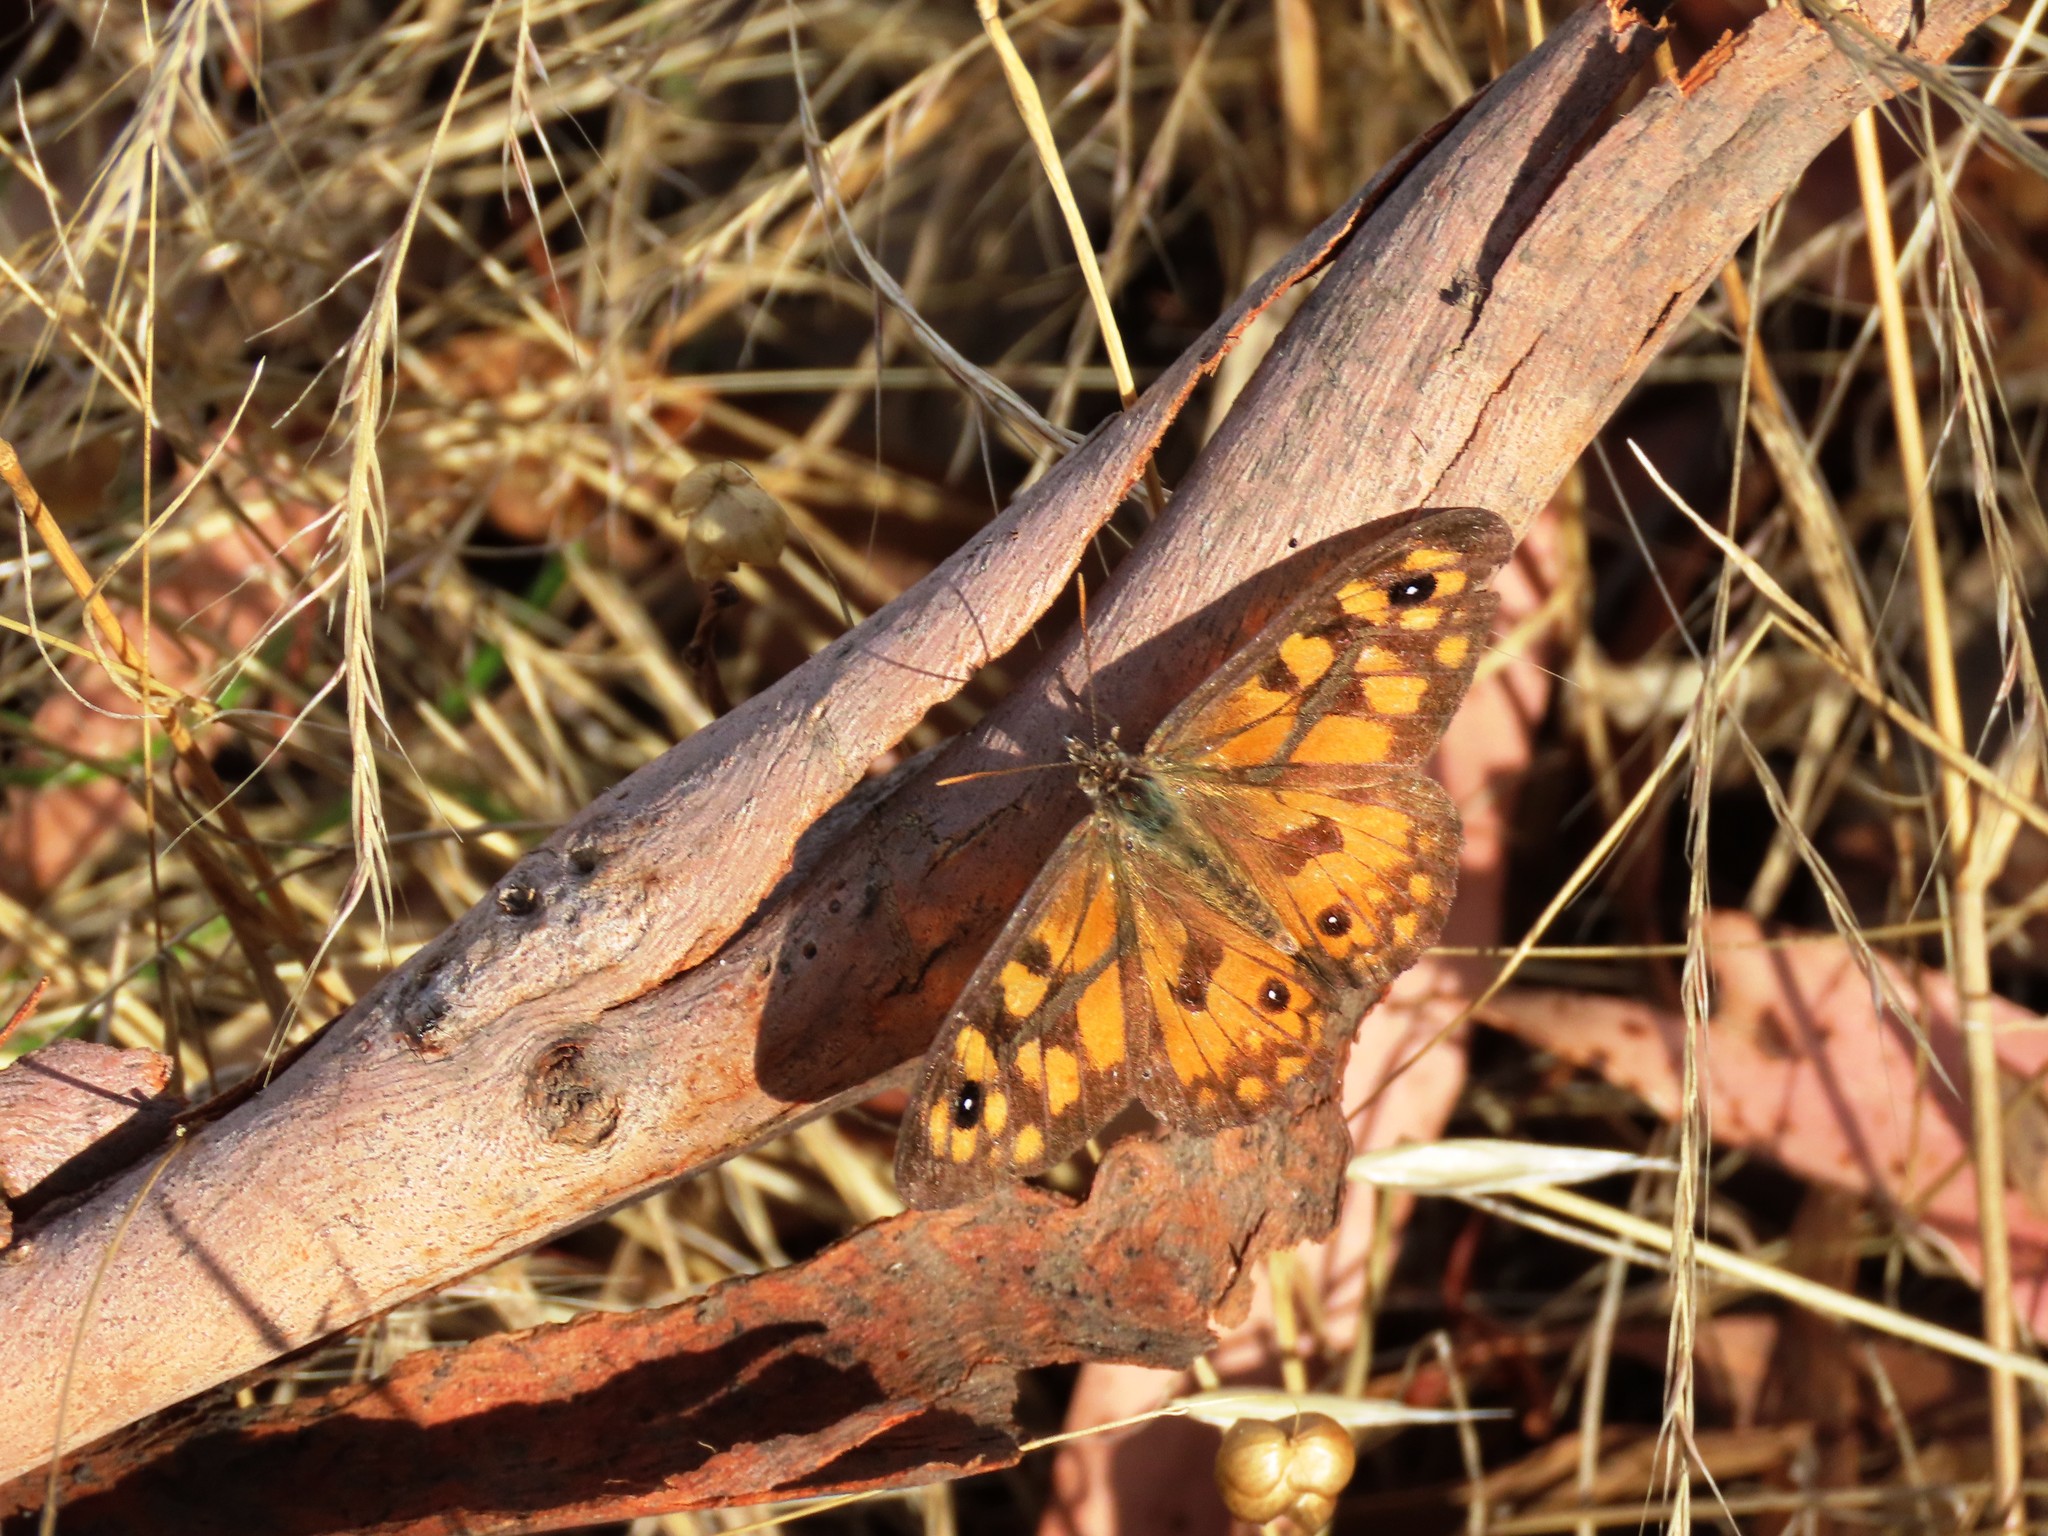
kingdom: Animalia
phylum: Arthropoda
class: Insecta
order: Lepidoptera
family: Nymphalidae
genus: Geitoneura
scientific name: Geitoneura klugii
